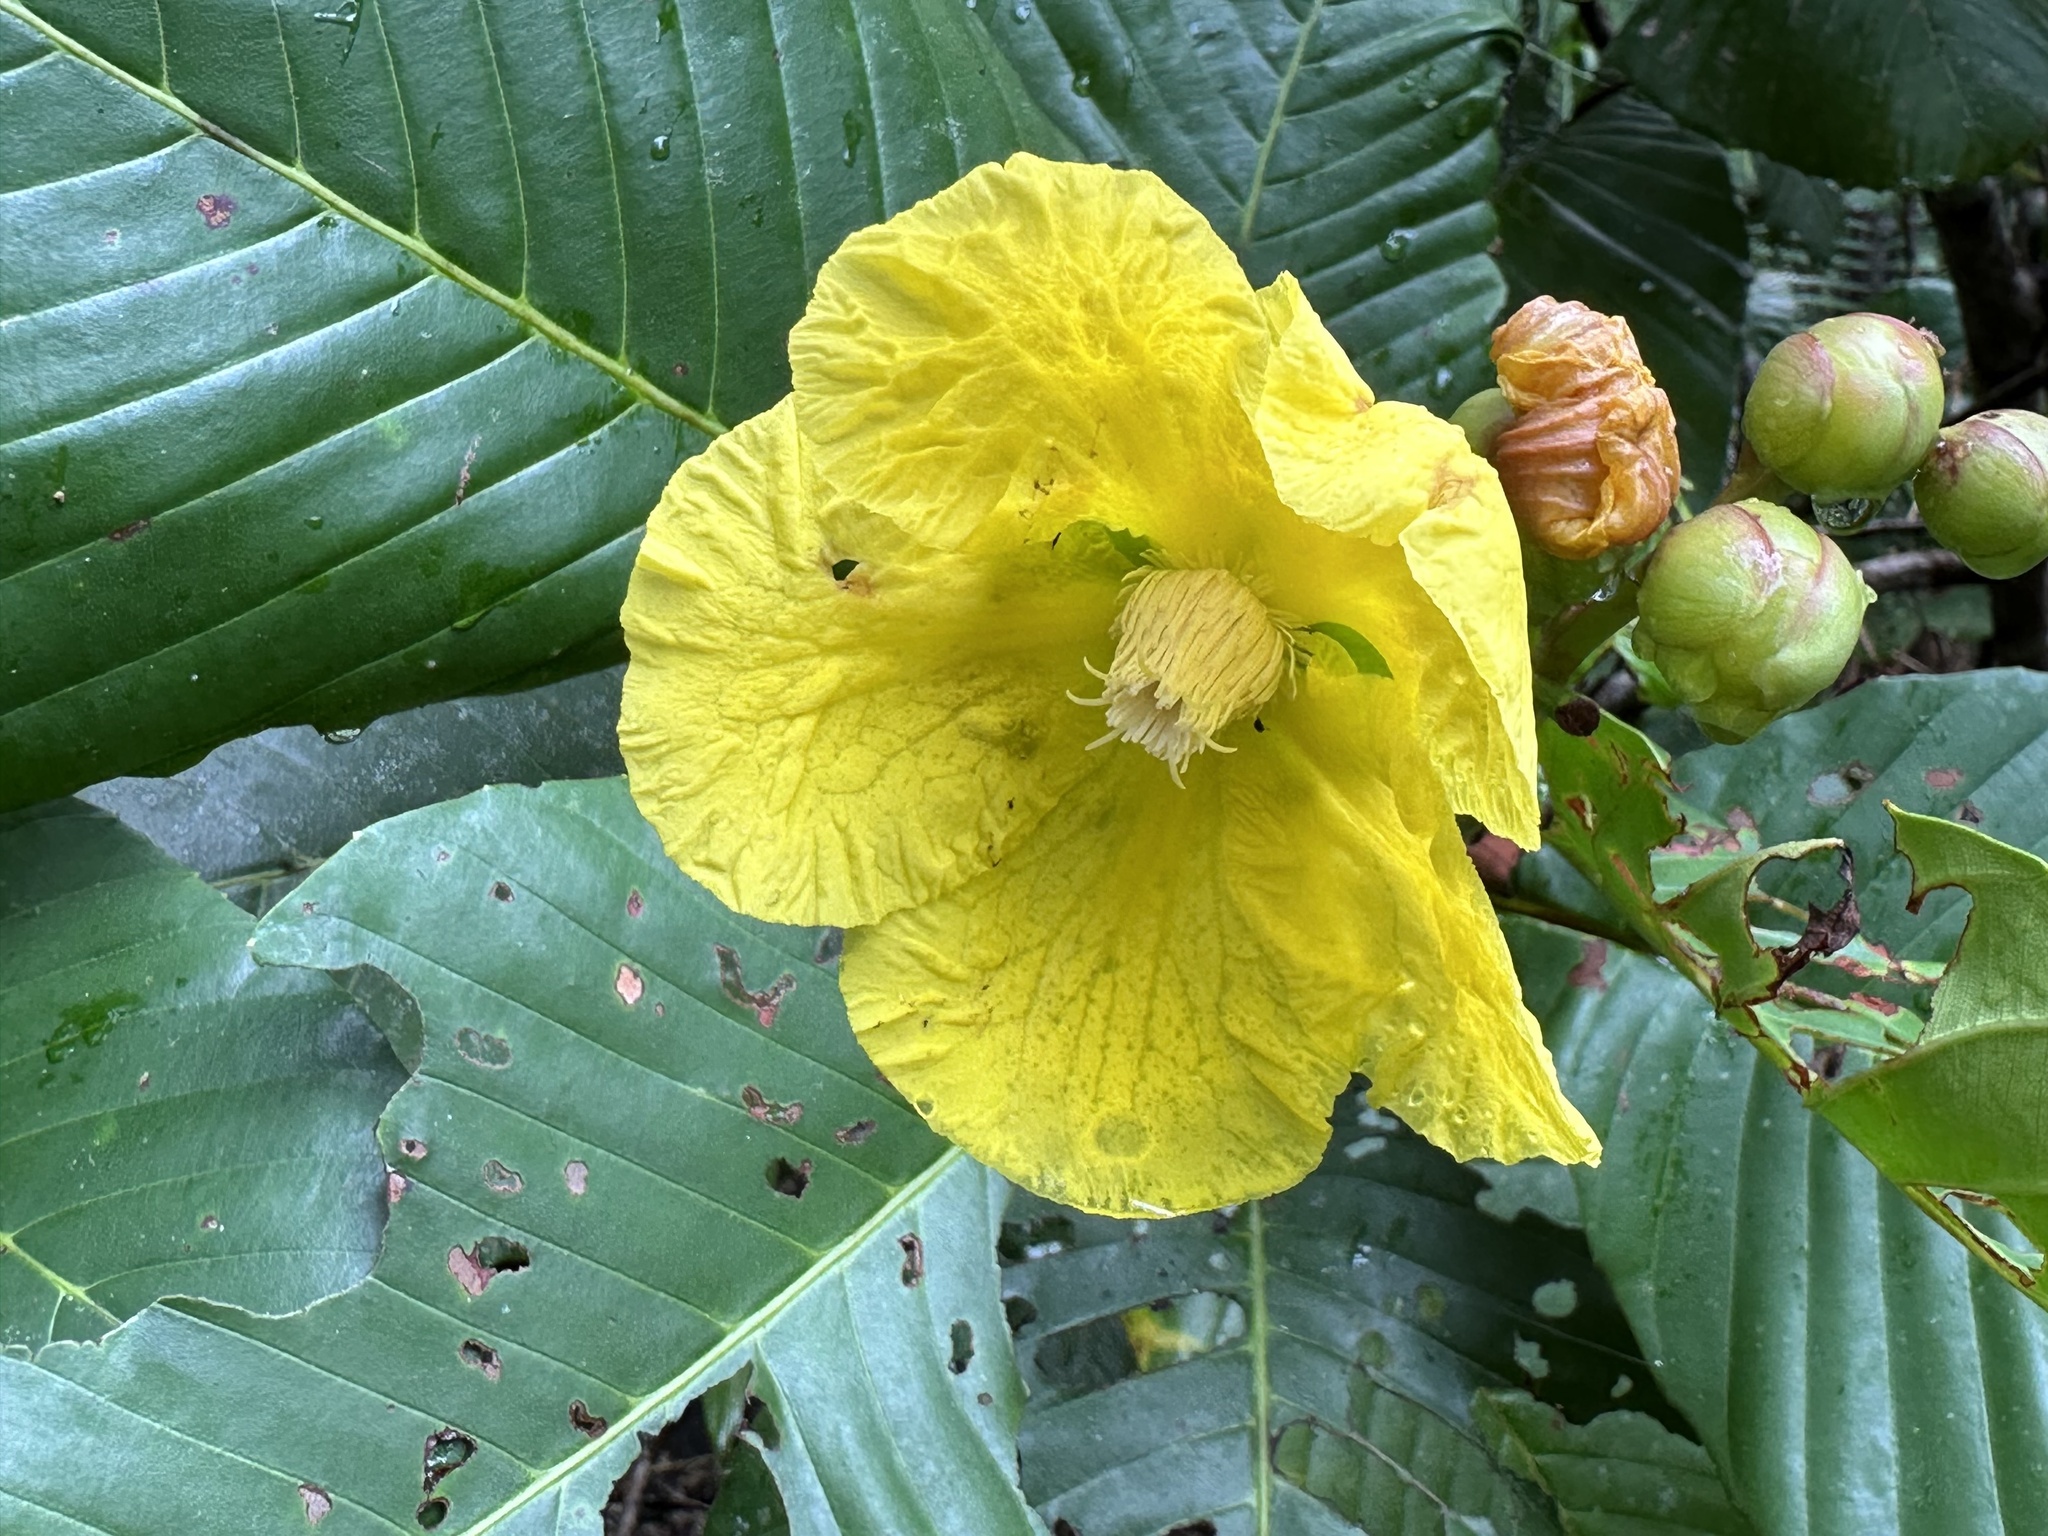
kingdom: Plantae
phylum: Tracheophyta
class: Magnoliopsida
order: Dilleniales
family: Dilleniaceae
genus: Dillenia
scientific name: Dillenia suffruticosa
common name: Shrubby dillenia
